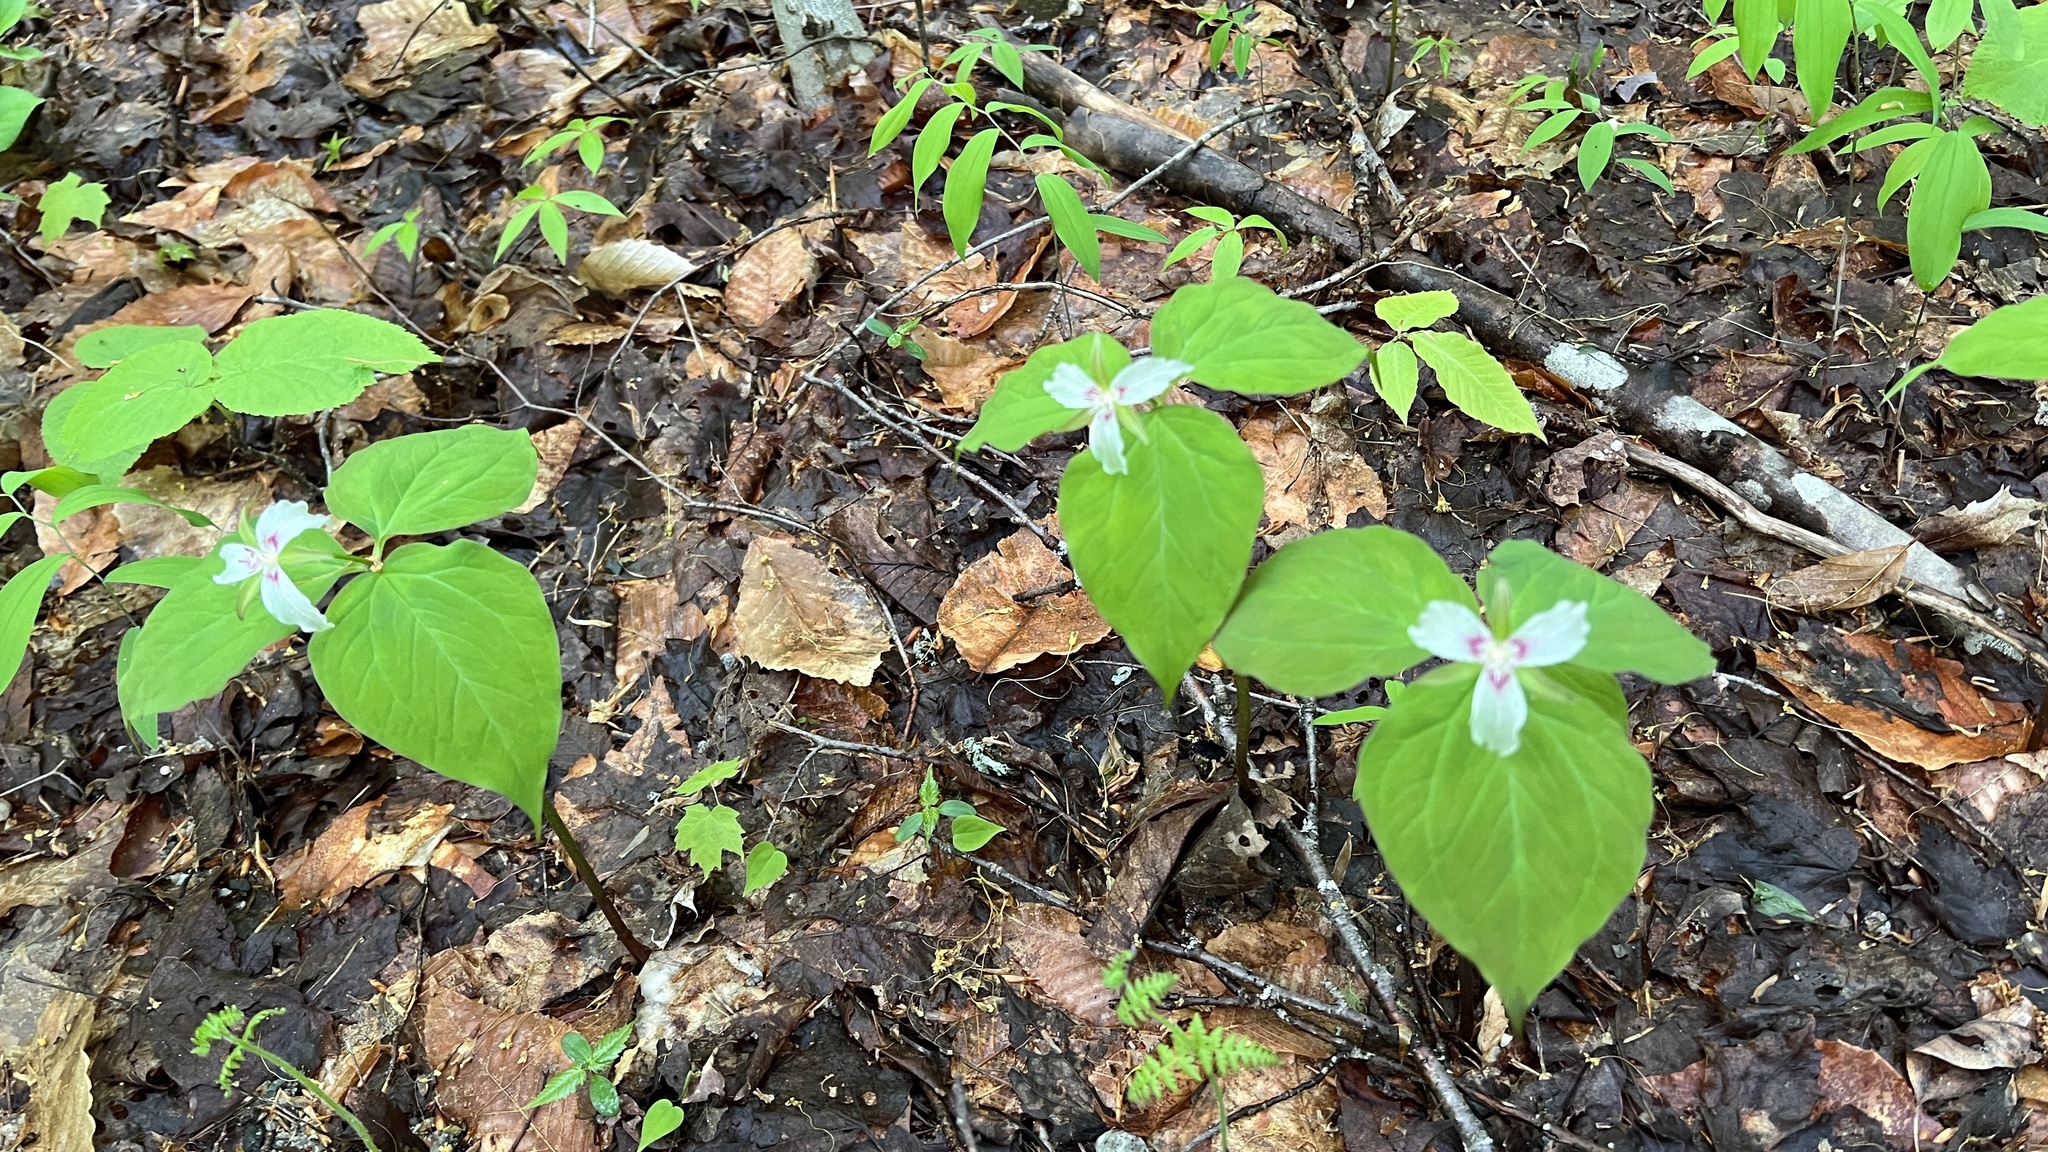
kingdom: Plantae
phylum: Tracheophyta
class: Liliopsida
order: Liliales
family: Melanthiaceae
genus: Trillium
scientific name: Trillium undulatum
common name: Paint trillium
